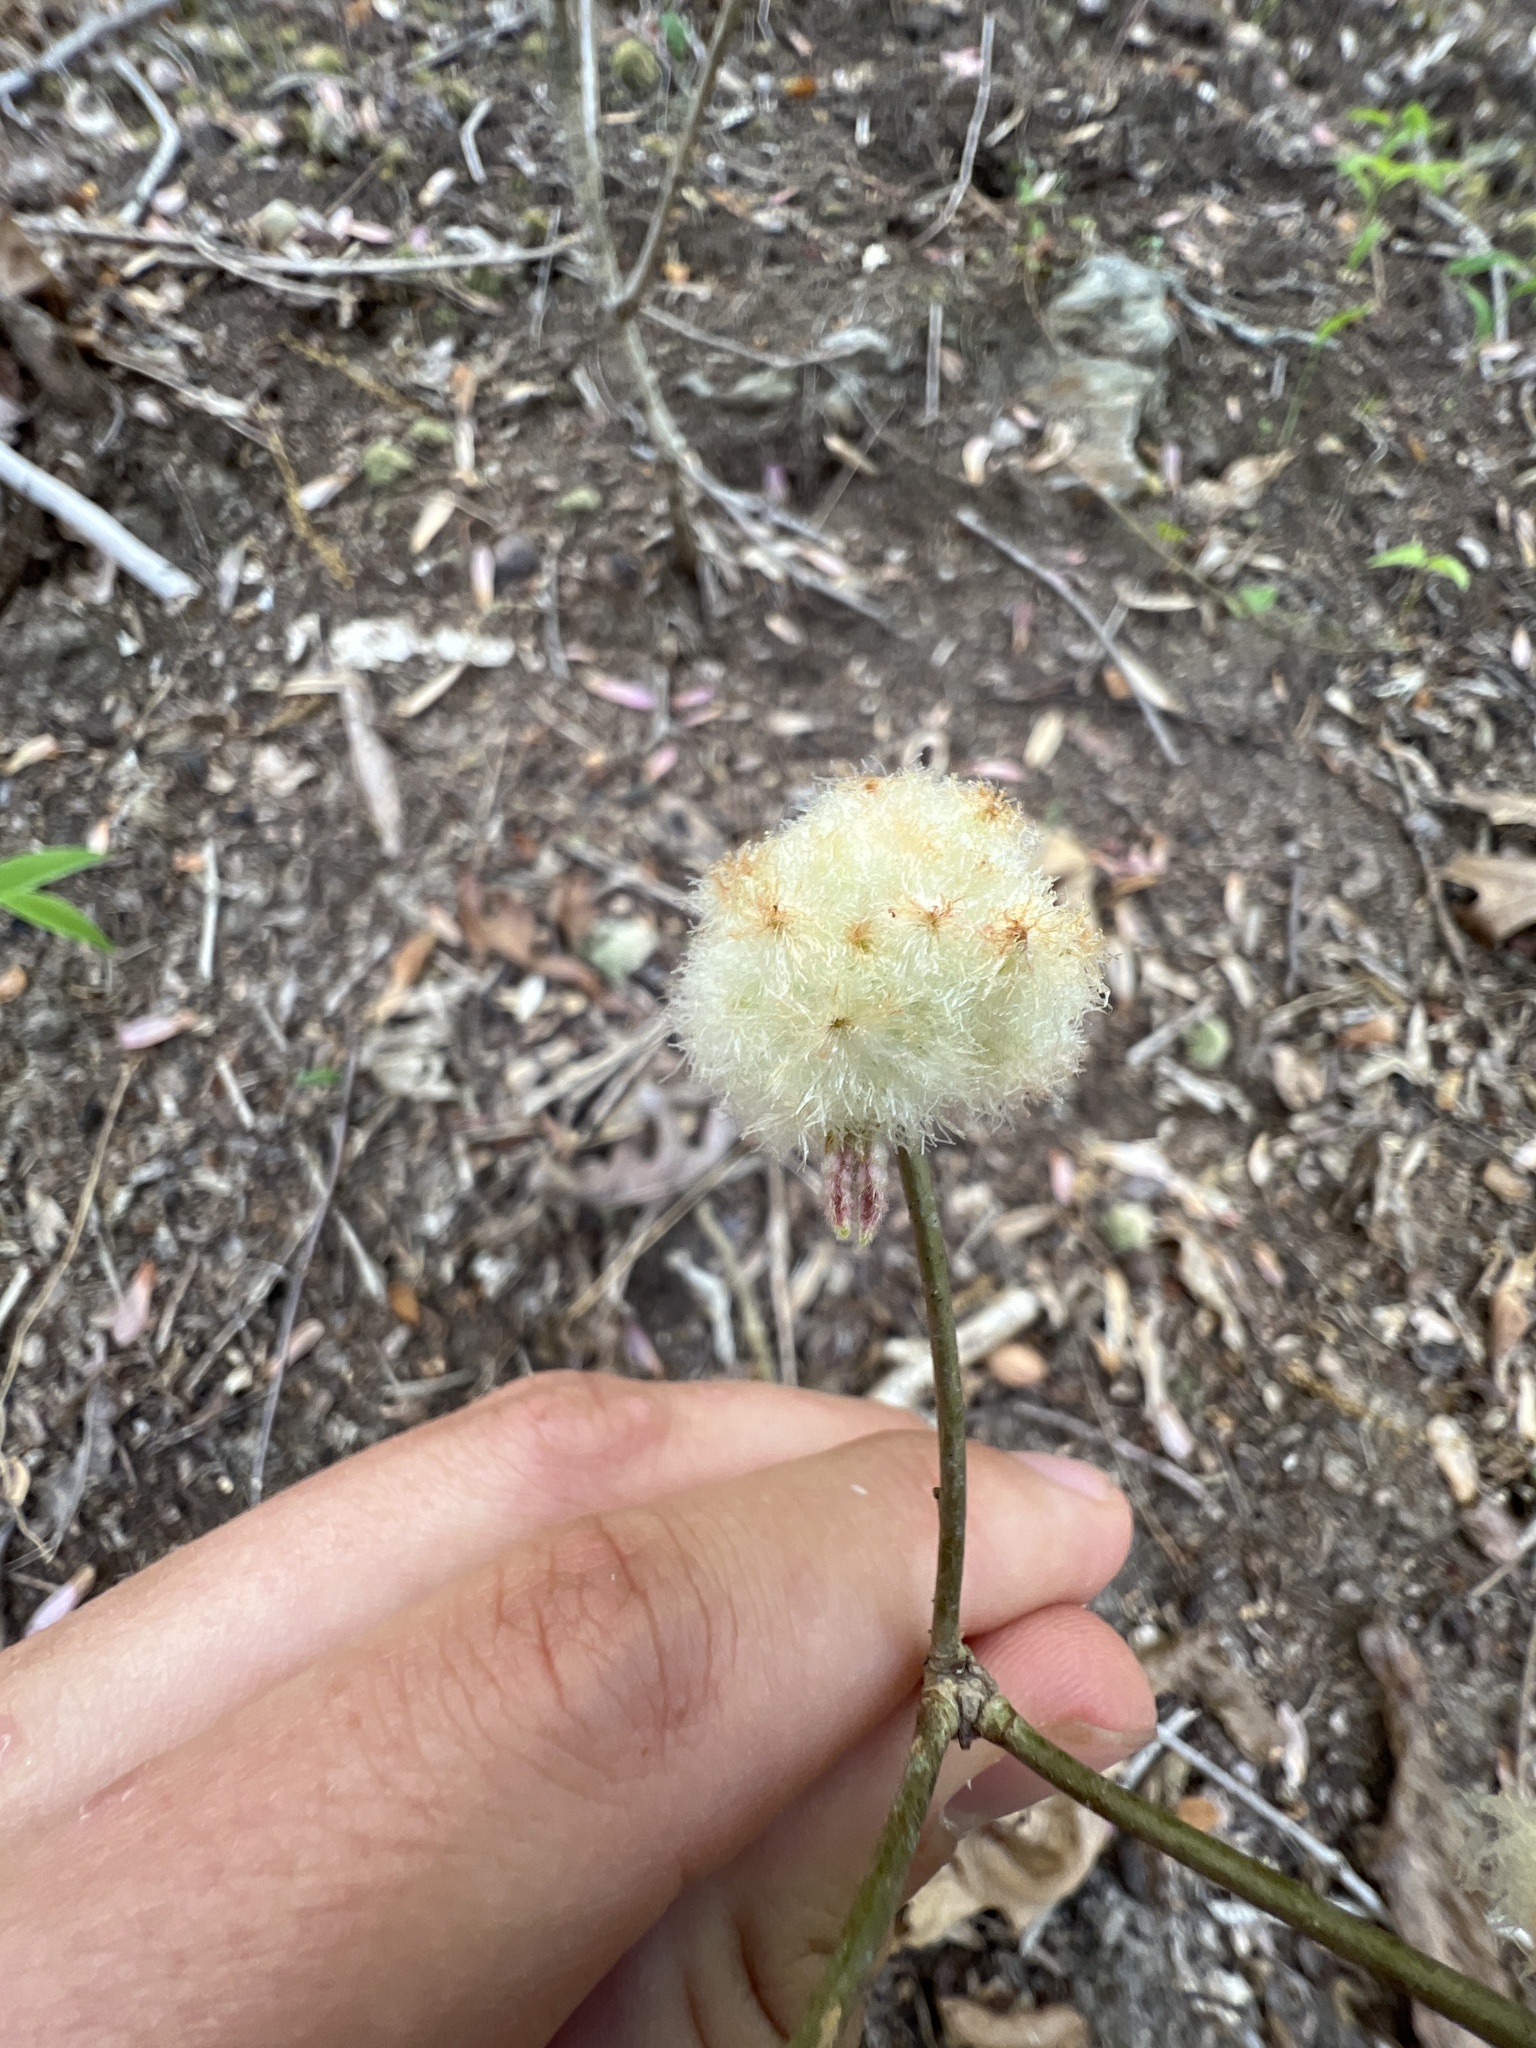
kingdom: Animalia
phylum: Arthropoda
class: Insecta
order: Hymenoptera
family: Cynipidae
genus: Callirhytis
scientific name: Callirhytis
